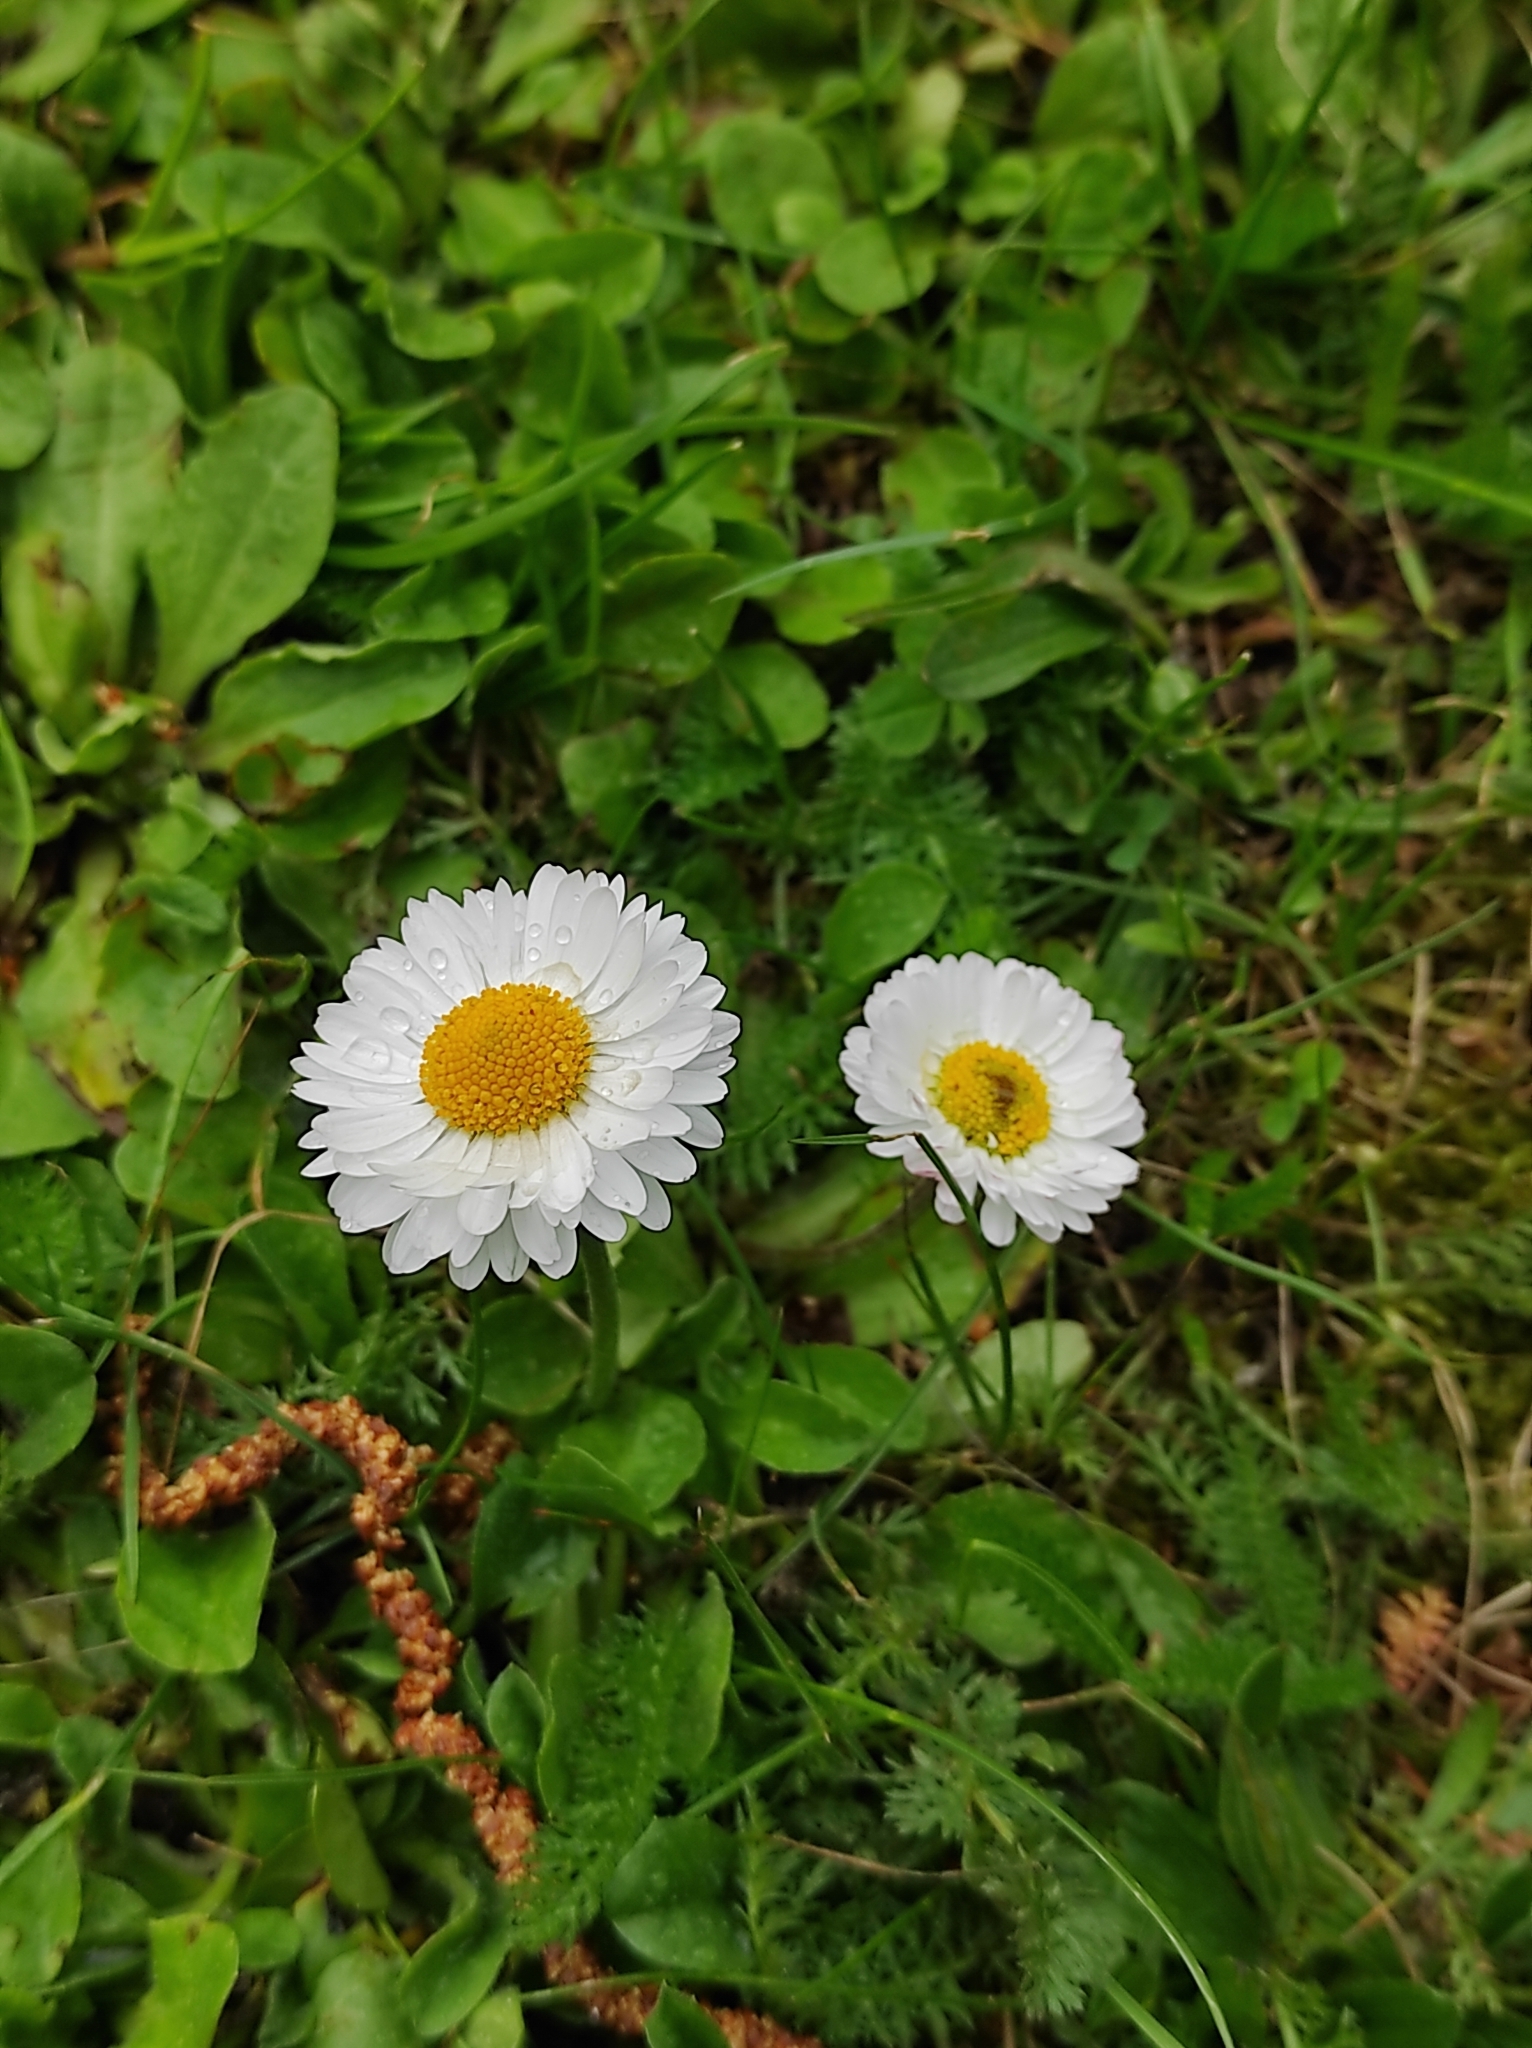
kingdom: Plantae
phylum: Tracheophyta
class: Magnoliopsida
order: Asterales
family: Asteraceae
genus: Bellis
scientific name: Bellis perennis
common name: Lawndaisy
